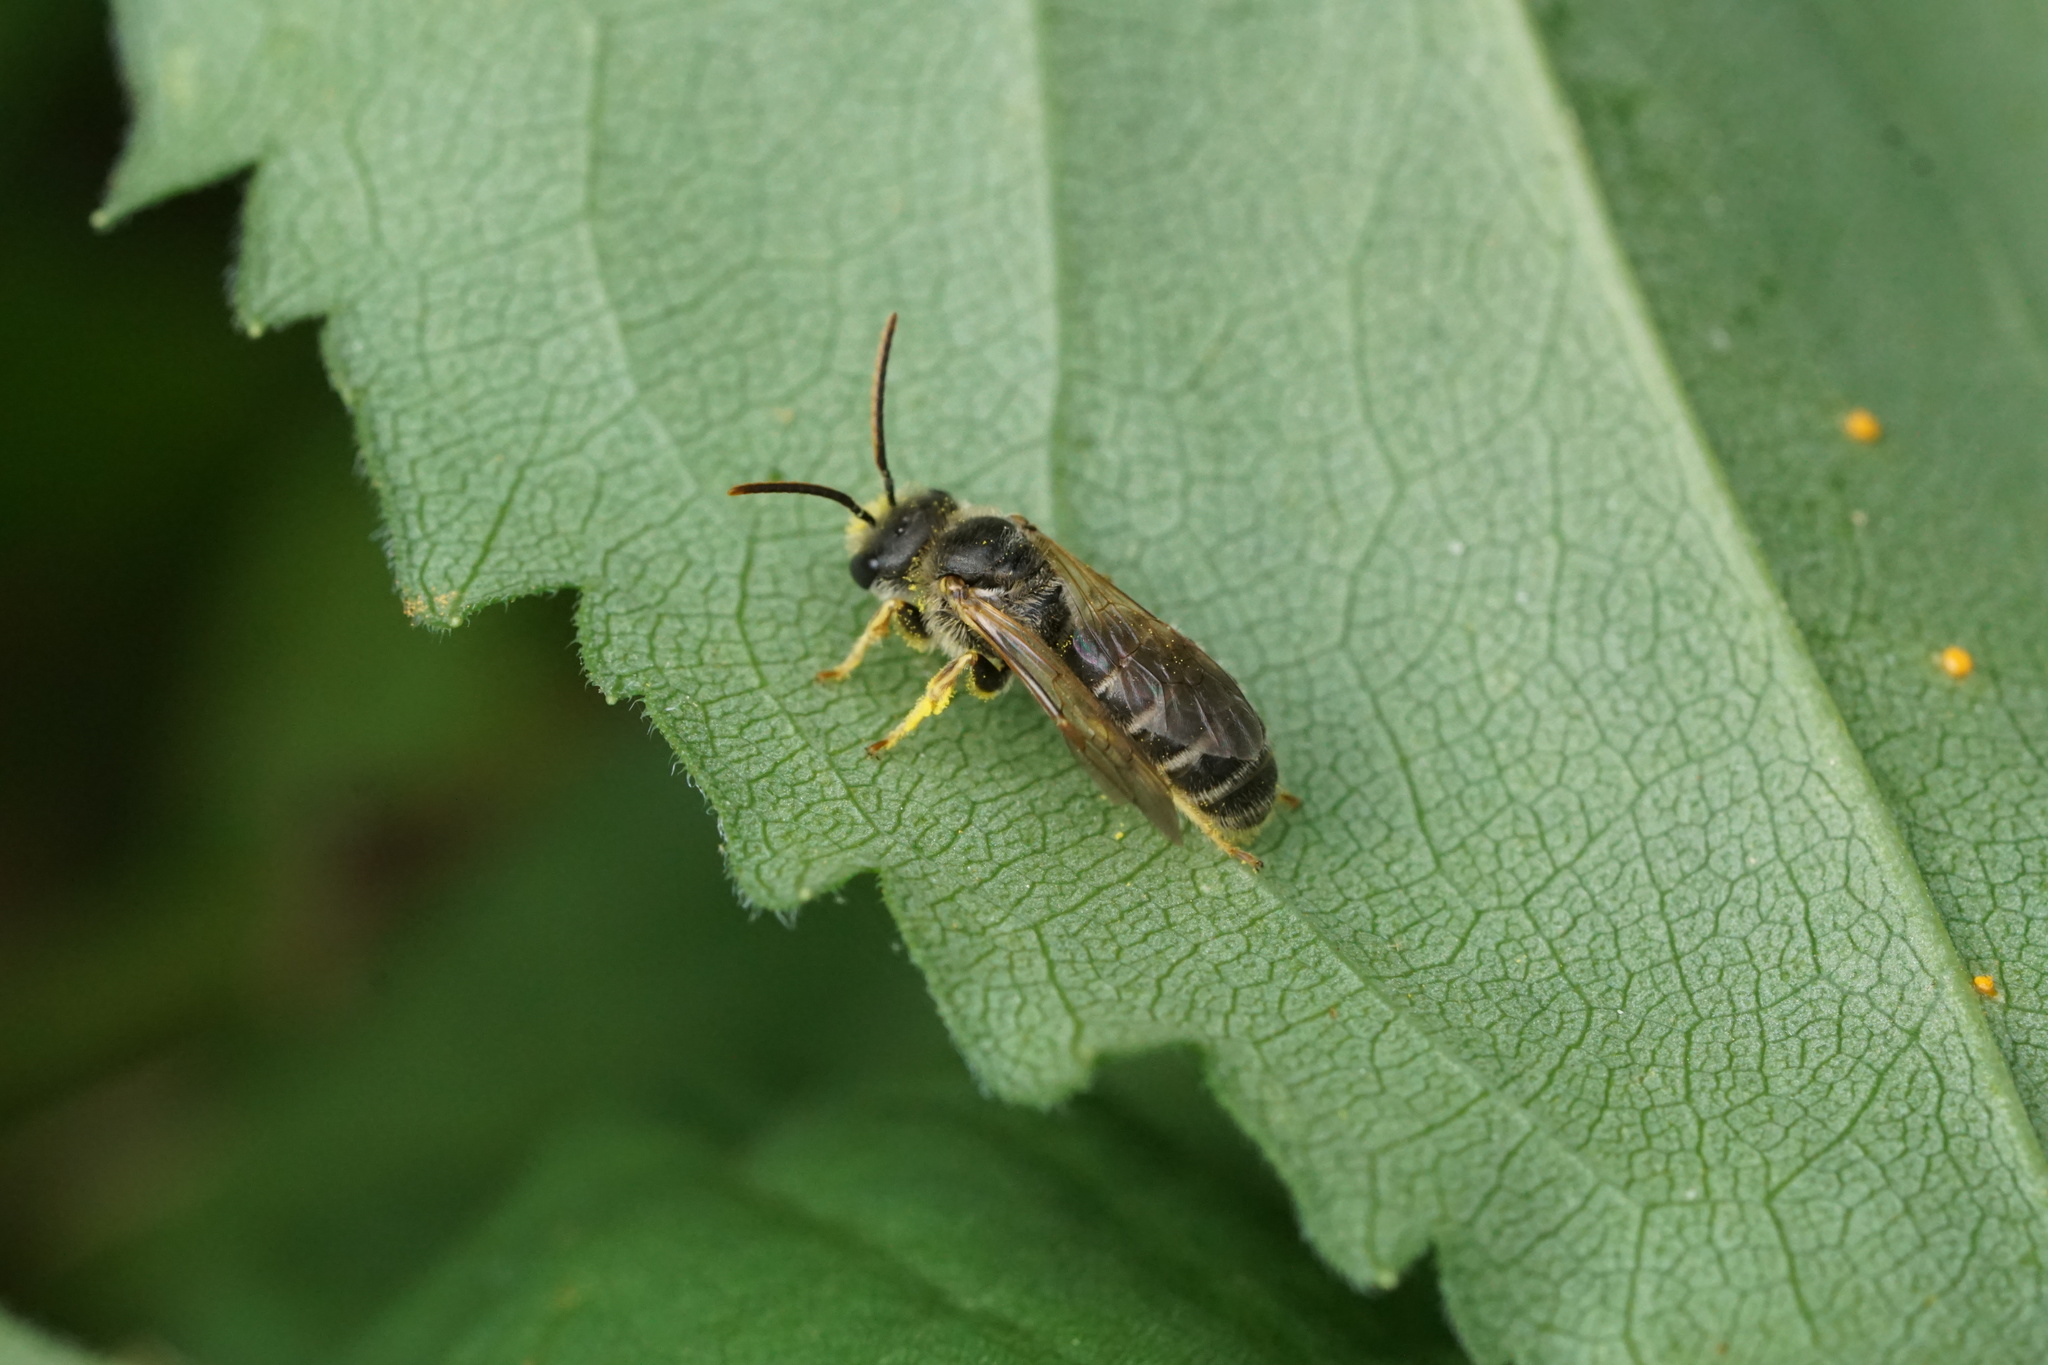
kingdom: Animalia
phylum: Arthropoda
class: Insecta
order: Hymenoptera
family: Halictidae
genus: Halictus
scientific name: Halictus ligatus
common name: Ligated furrow bee
